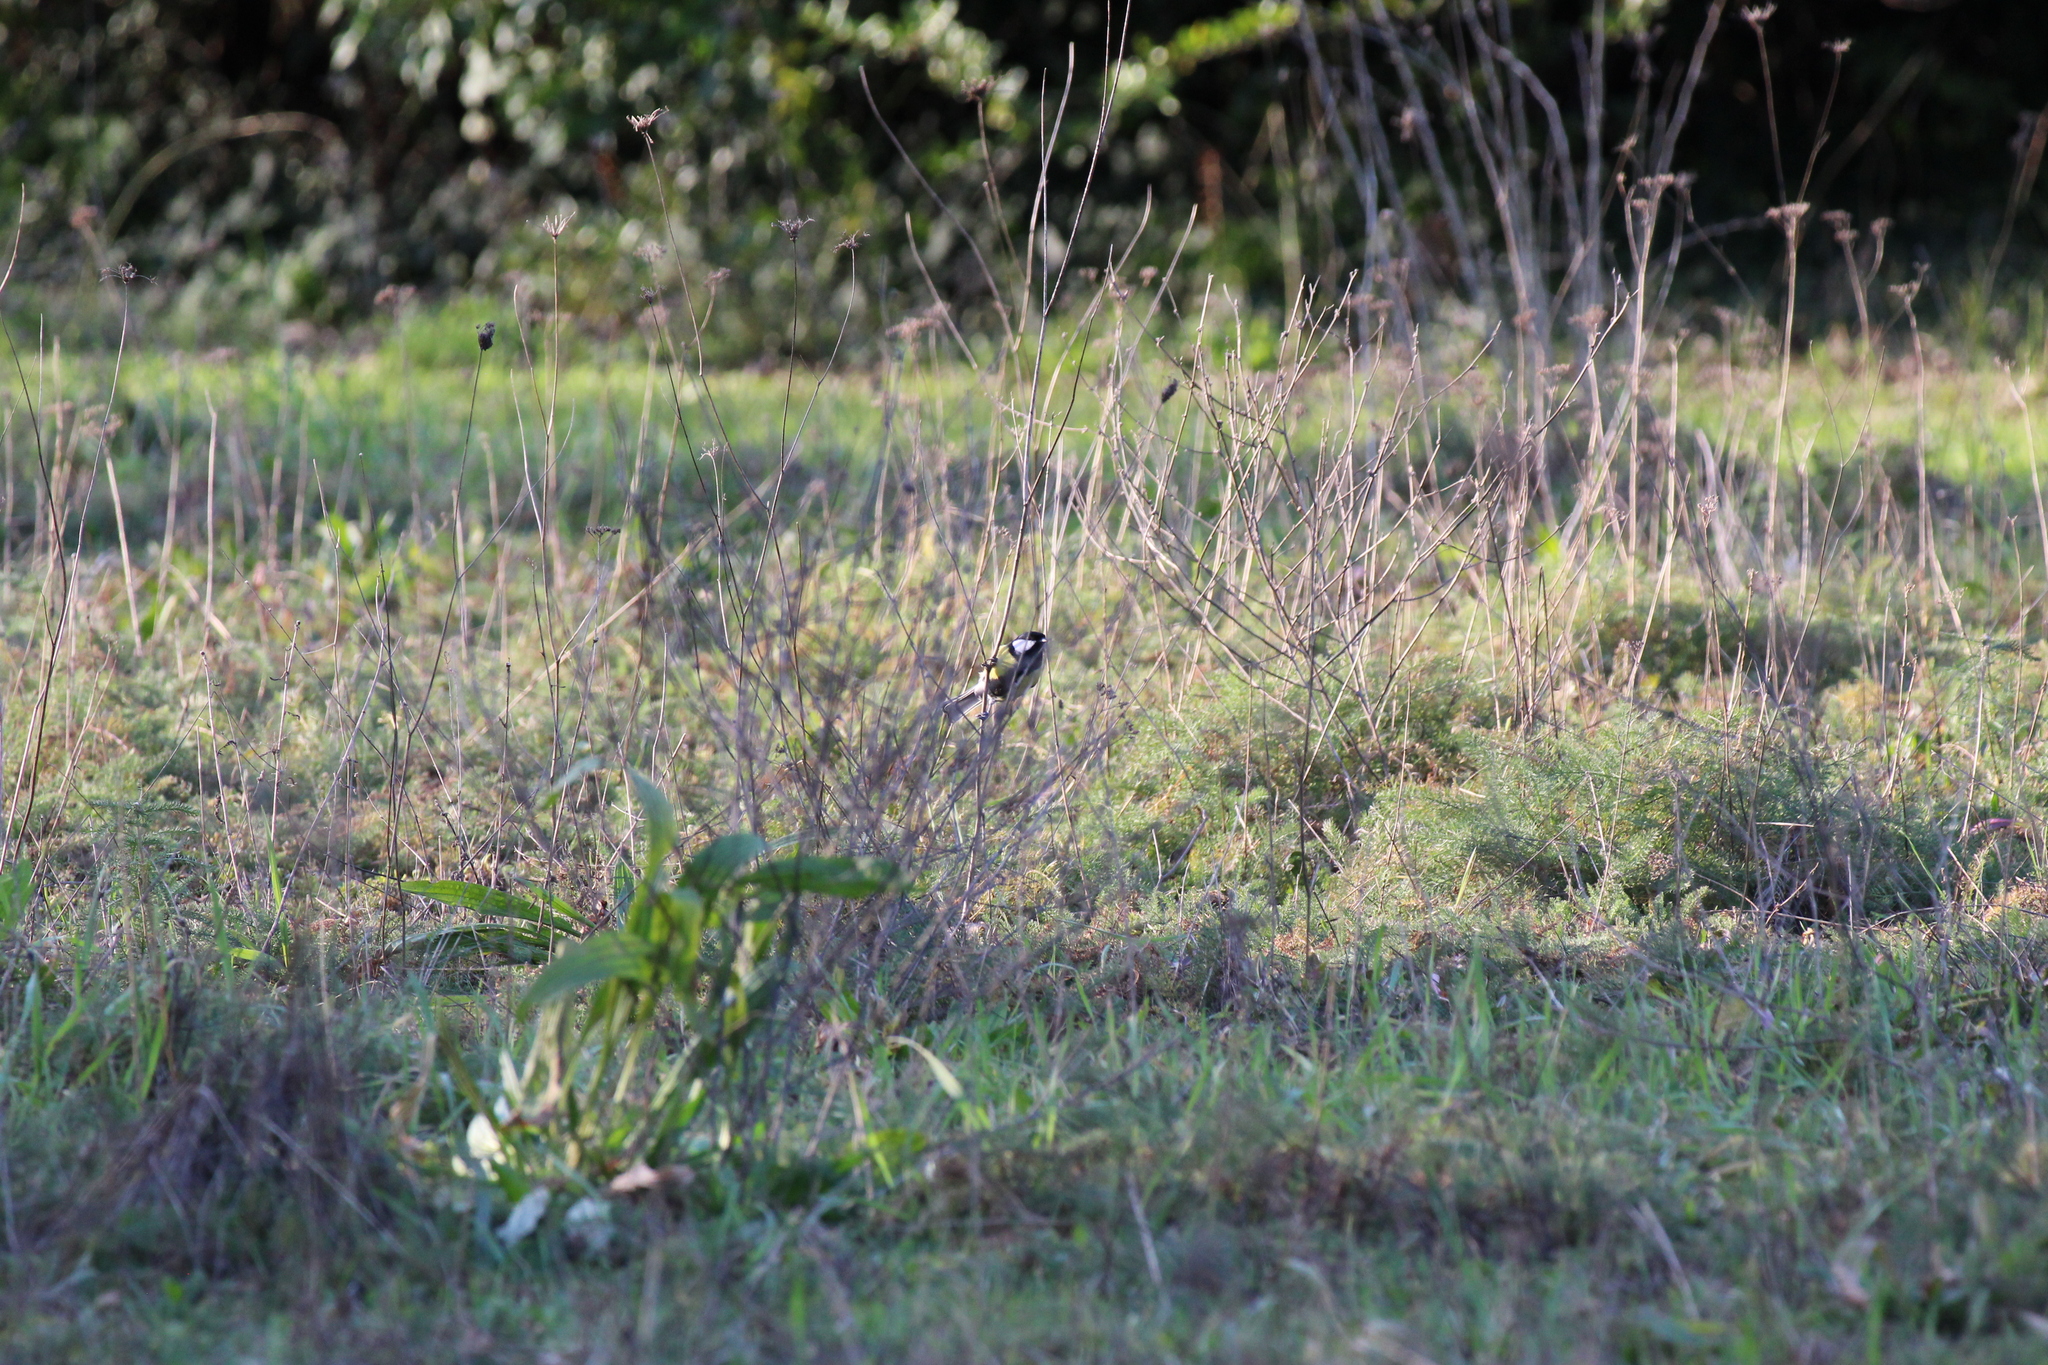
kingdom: Animalia
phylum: Chordata
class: Aves
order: Passeriformes
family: Paridae
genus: Parus
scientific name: Parus major
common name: Great tit
